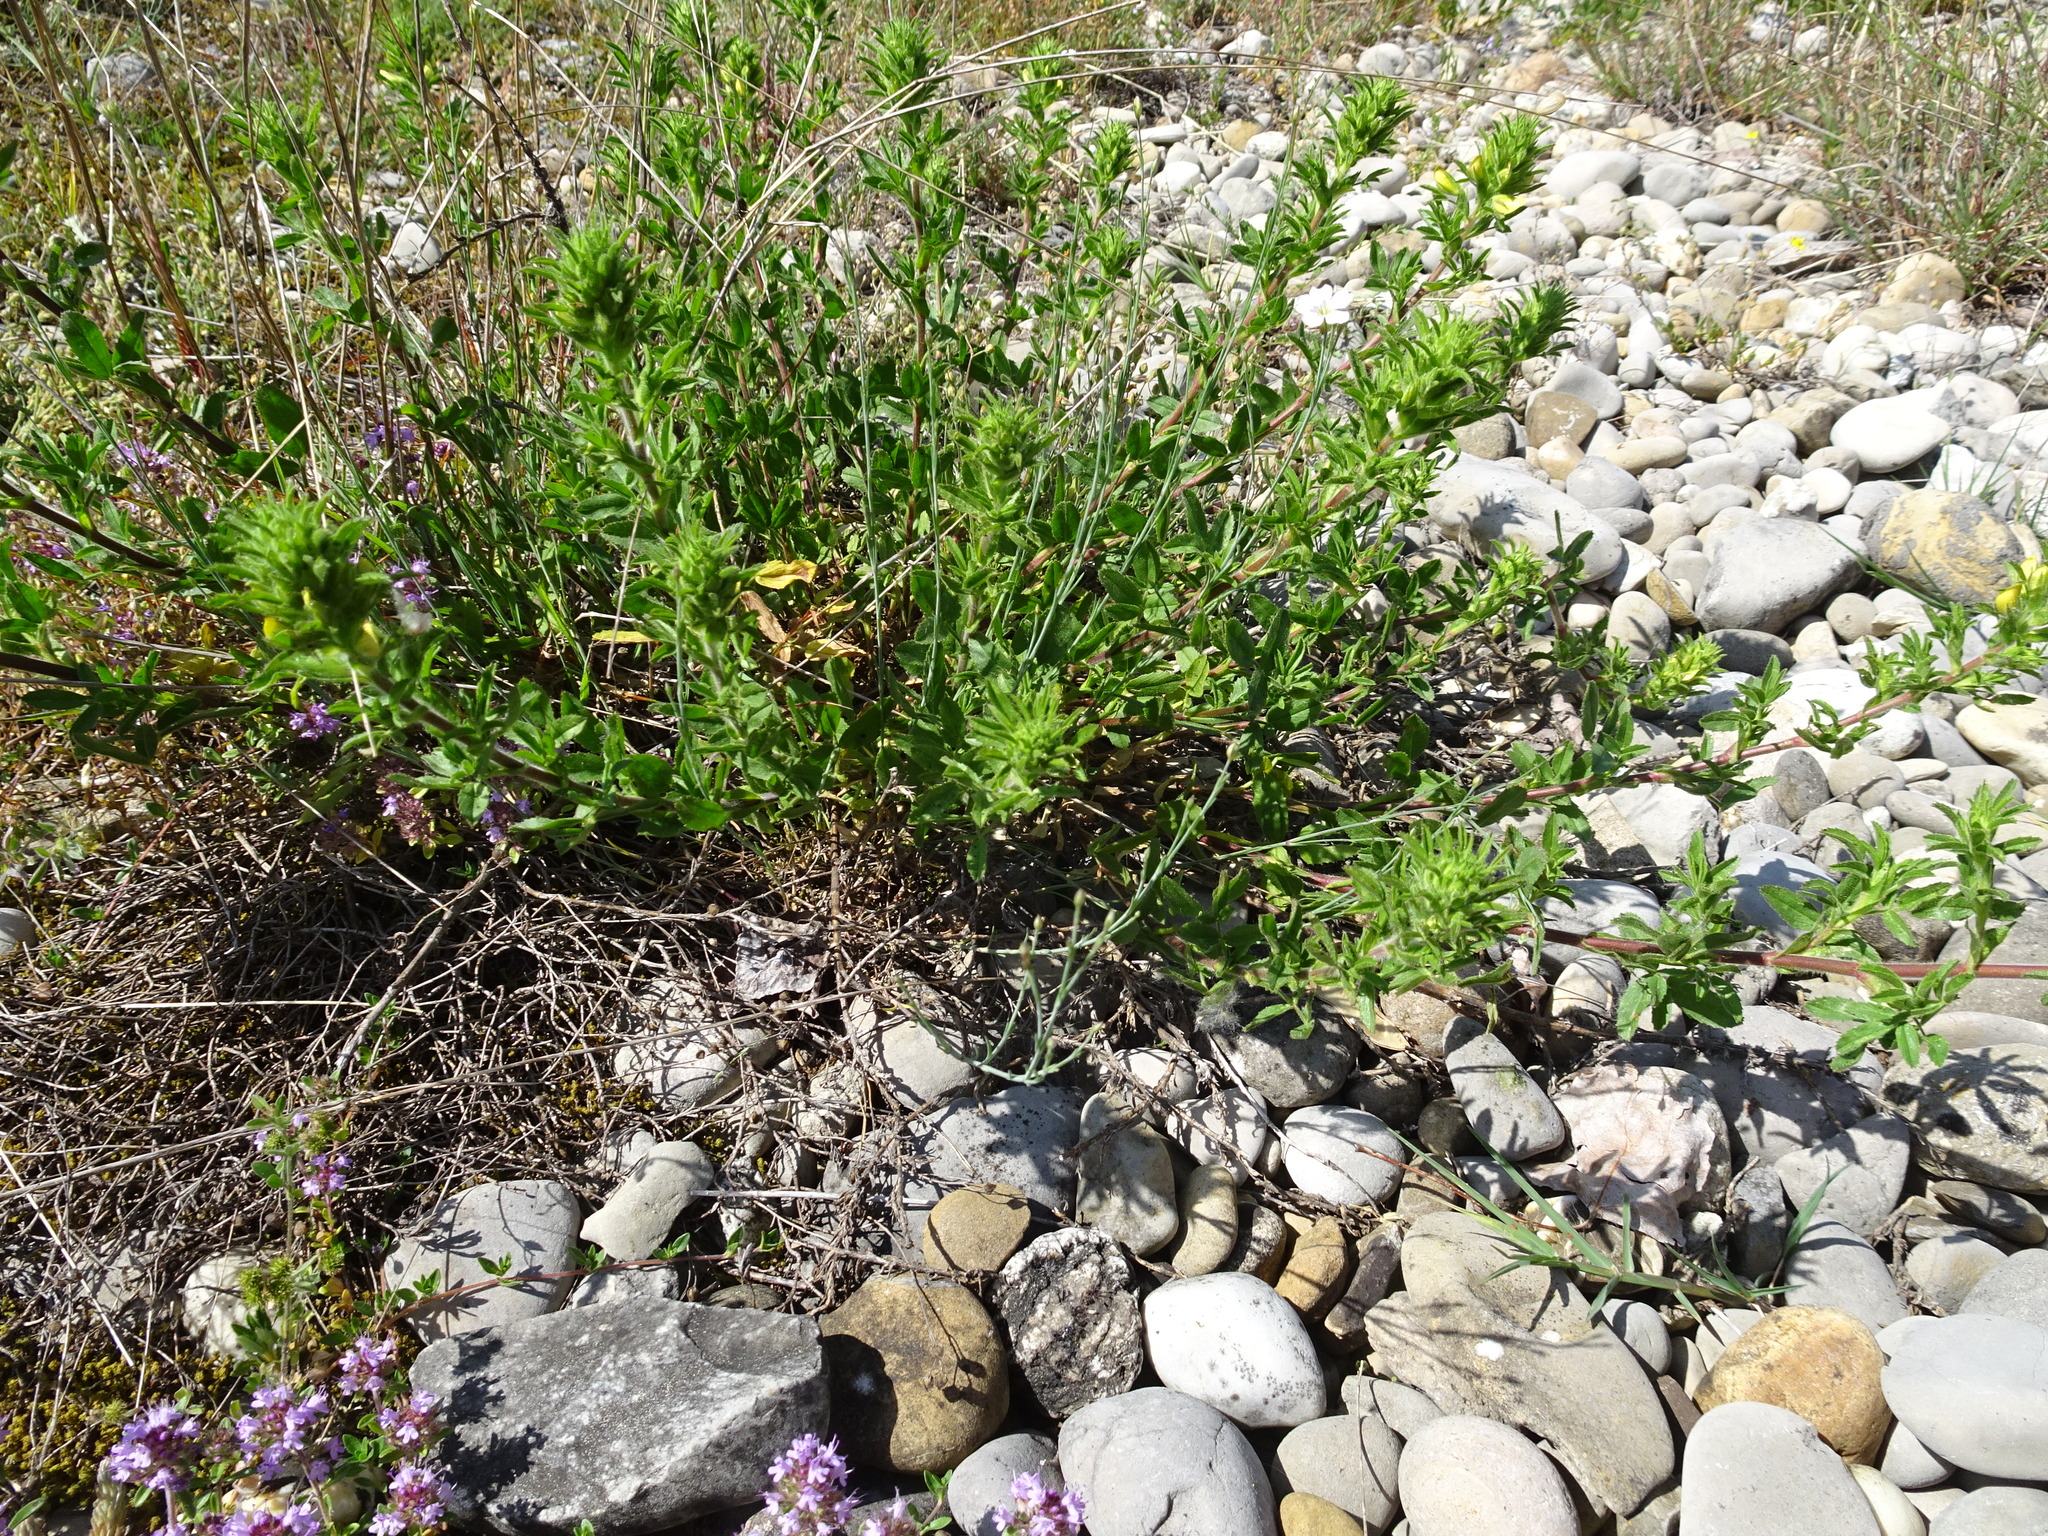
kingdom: Plantae
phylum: Tracheophyta
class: Magnoliopsida
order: Fabales
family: Fabaceae
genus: Ononis
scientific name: Ononis natrix
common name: Yellow restharrow
